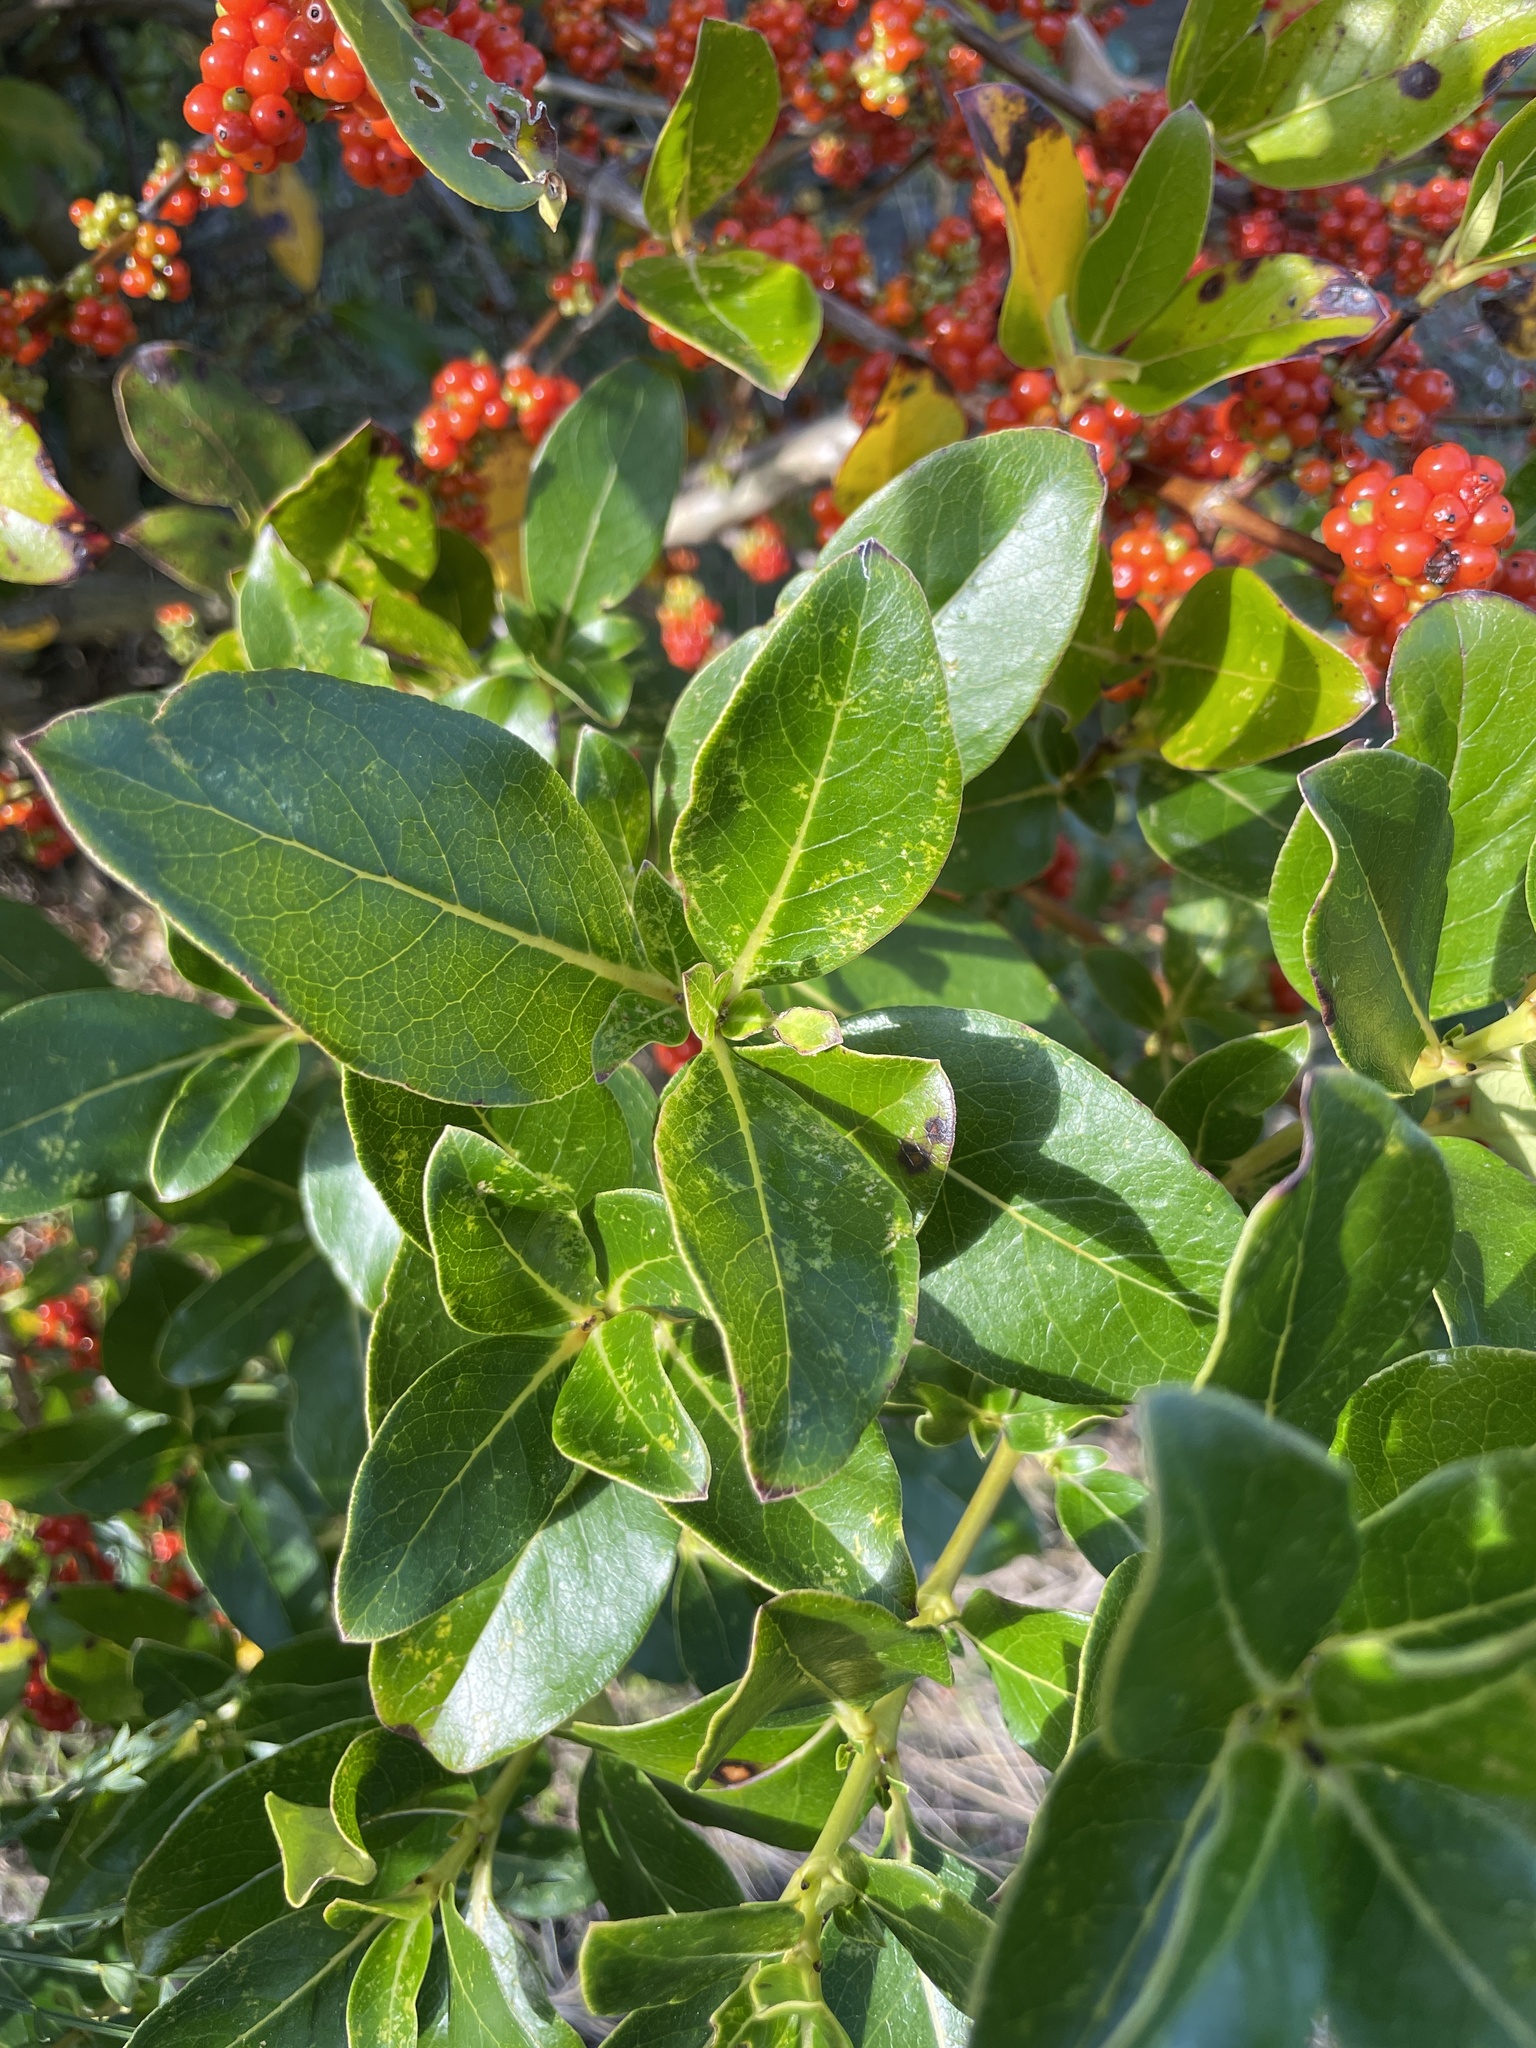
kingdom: Plantae
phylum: Tracheophyta
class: Magnoliopsida
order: Gentianales
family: Rubiaceae
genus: Coprosma
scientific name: Coprosma robusta
